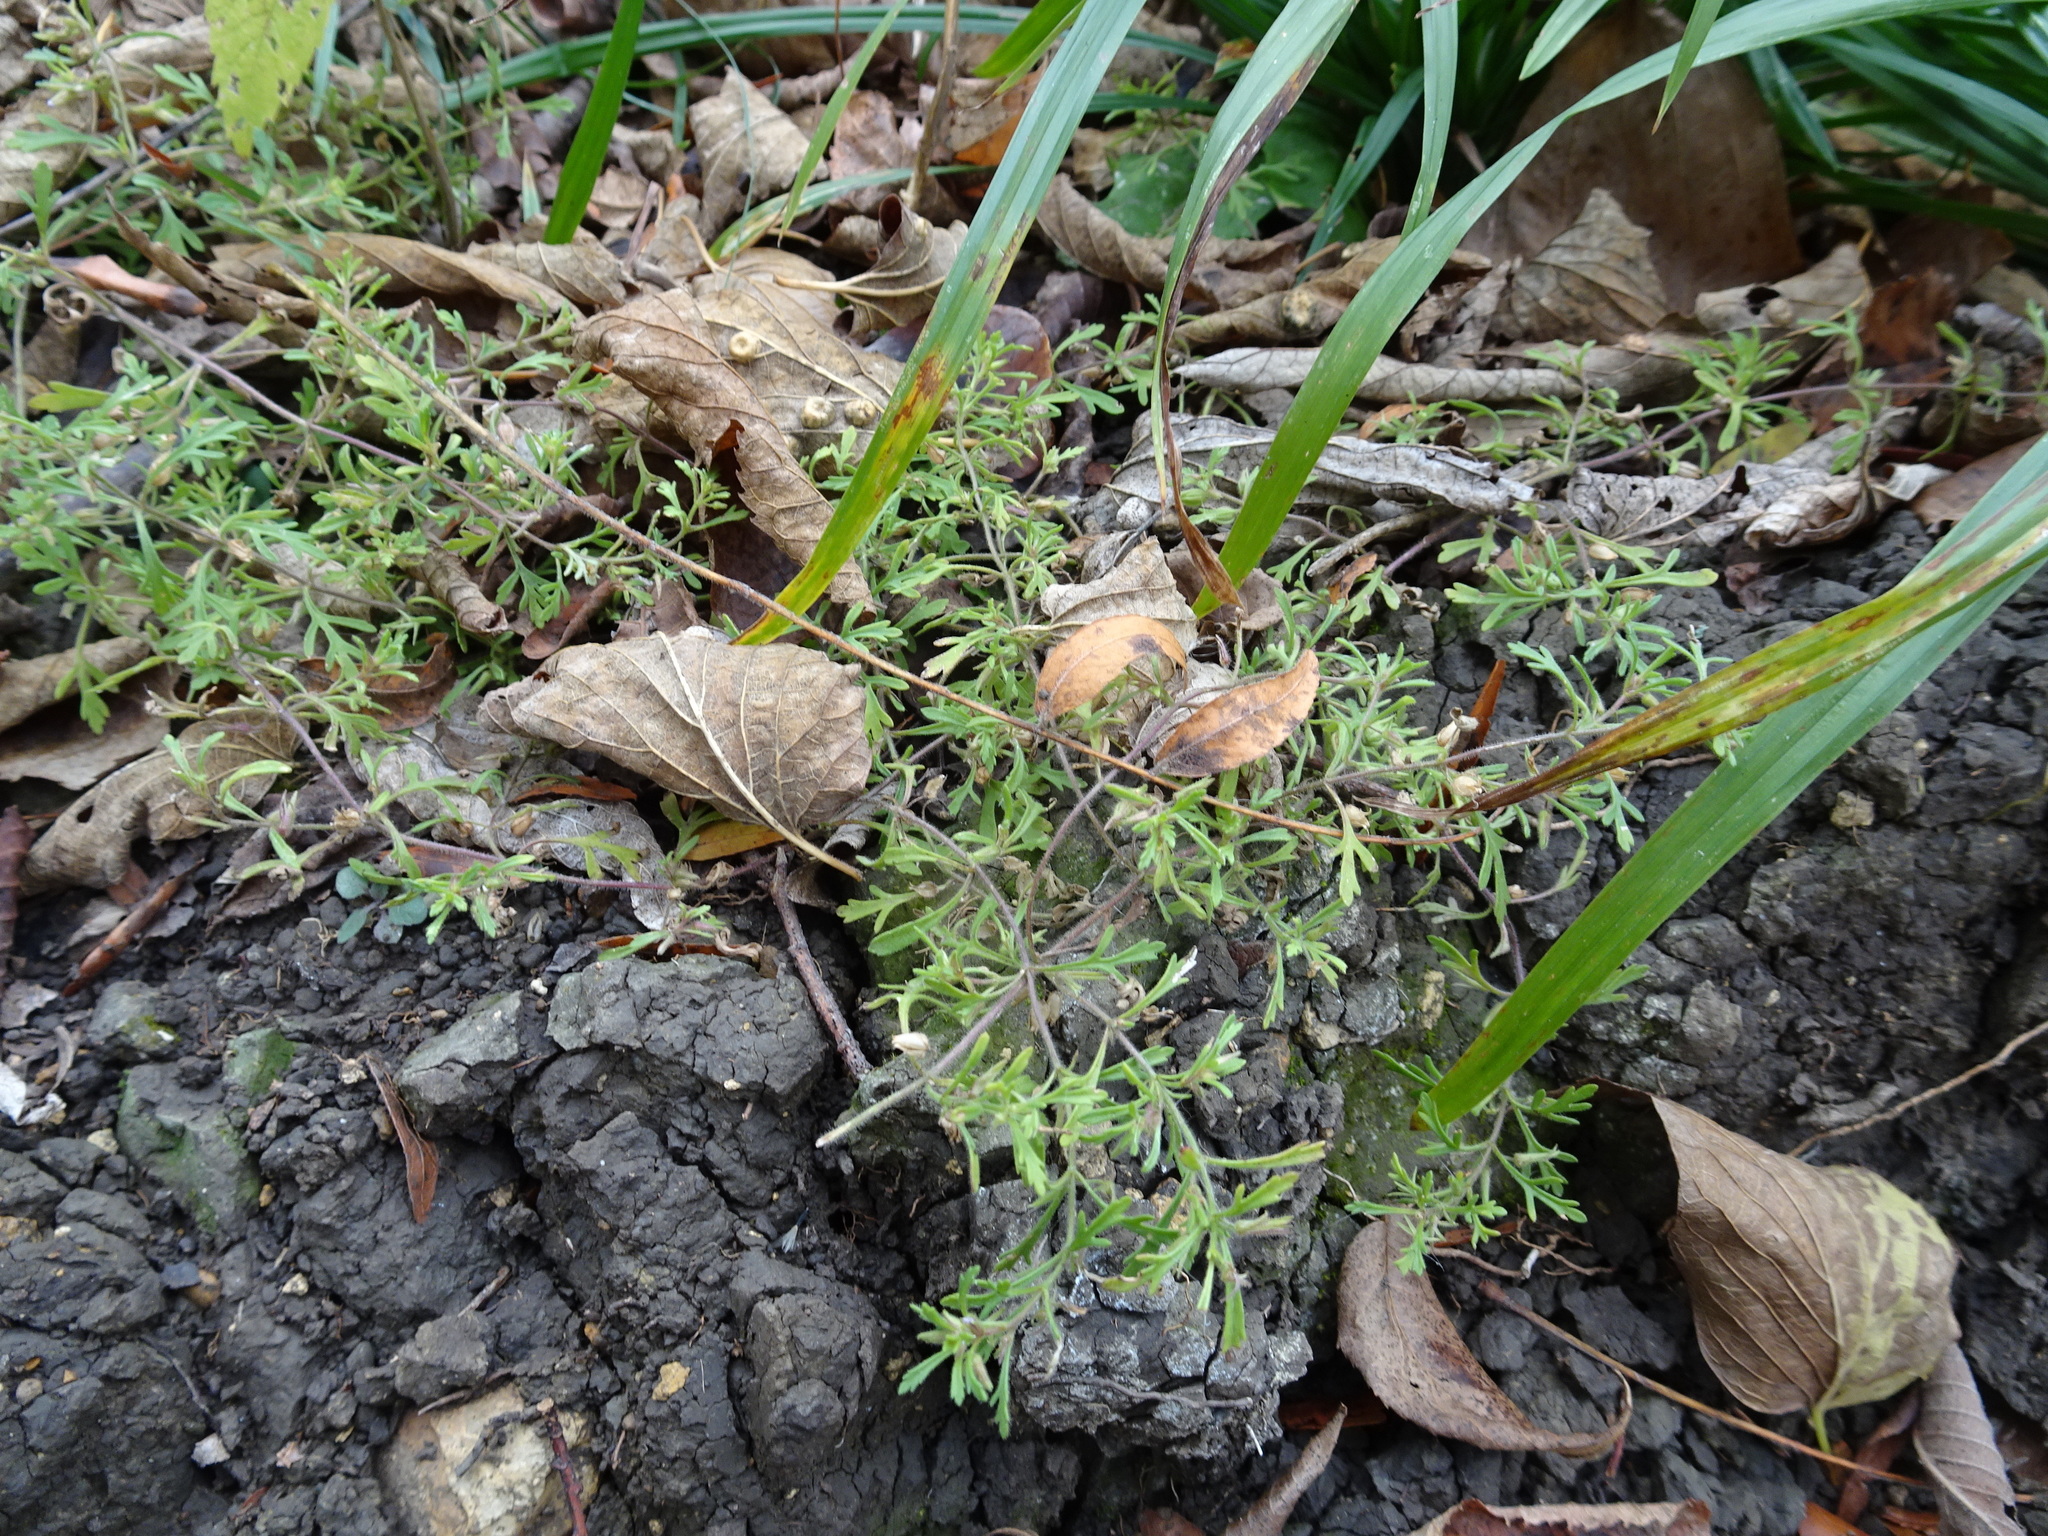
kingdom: Plantae
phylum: Tracheophyta
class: Magnoliopsida
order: Lamiales
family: Plantaginaceae
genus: Leucospora
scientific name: Leucospora multifida
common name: Narrow-leaf paleseed
